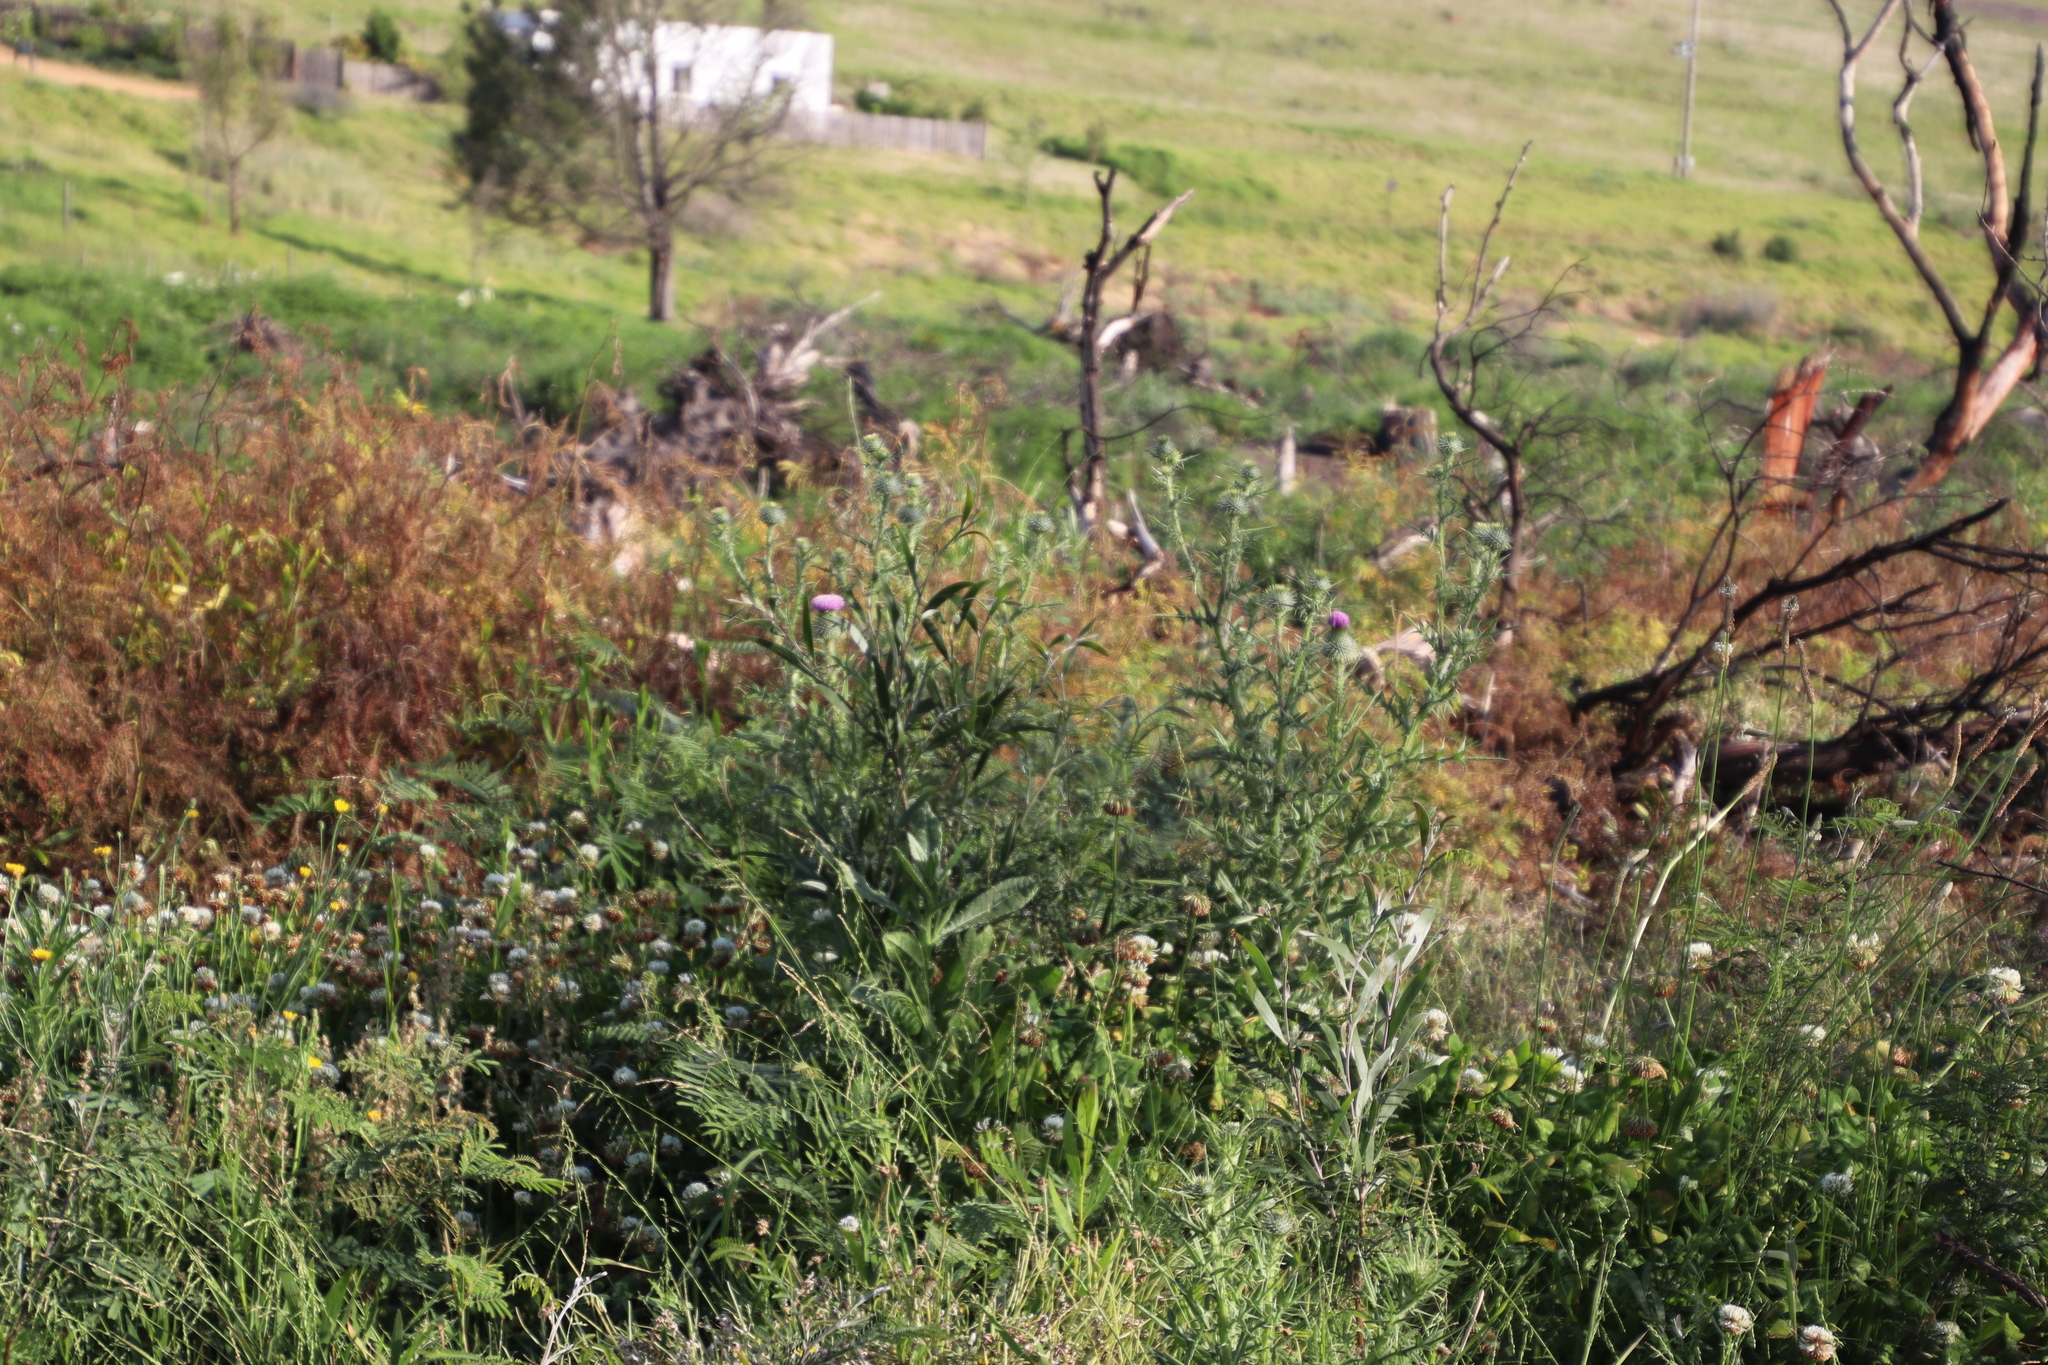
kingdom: Plantae
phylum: Tracheophyta
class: Magnoliopsida
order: Asterales
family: Asteraceae
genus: Cirsium
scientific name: Cirsium vulgare
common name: Bull thistle
